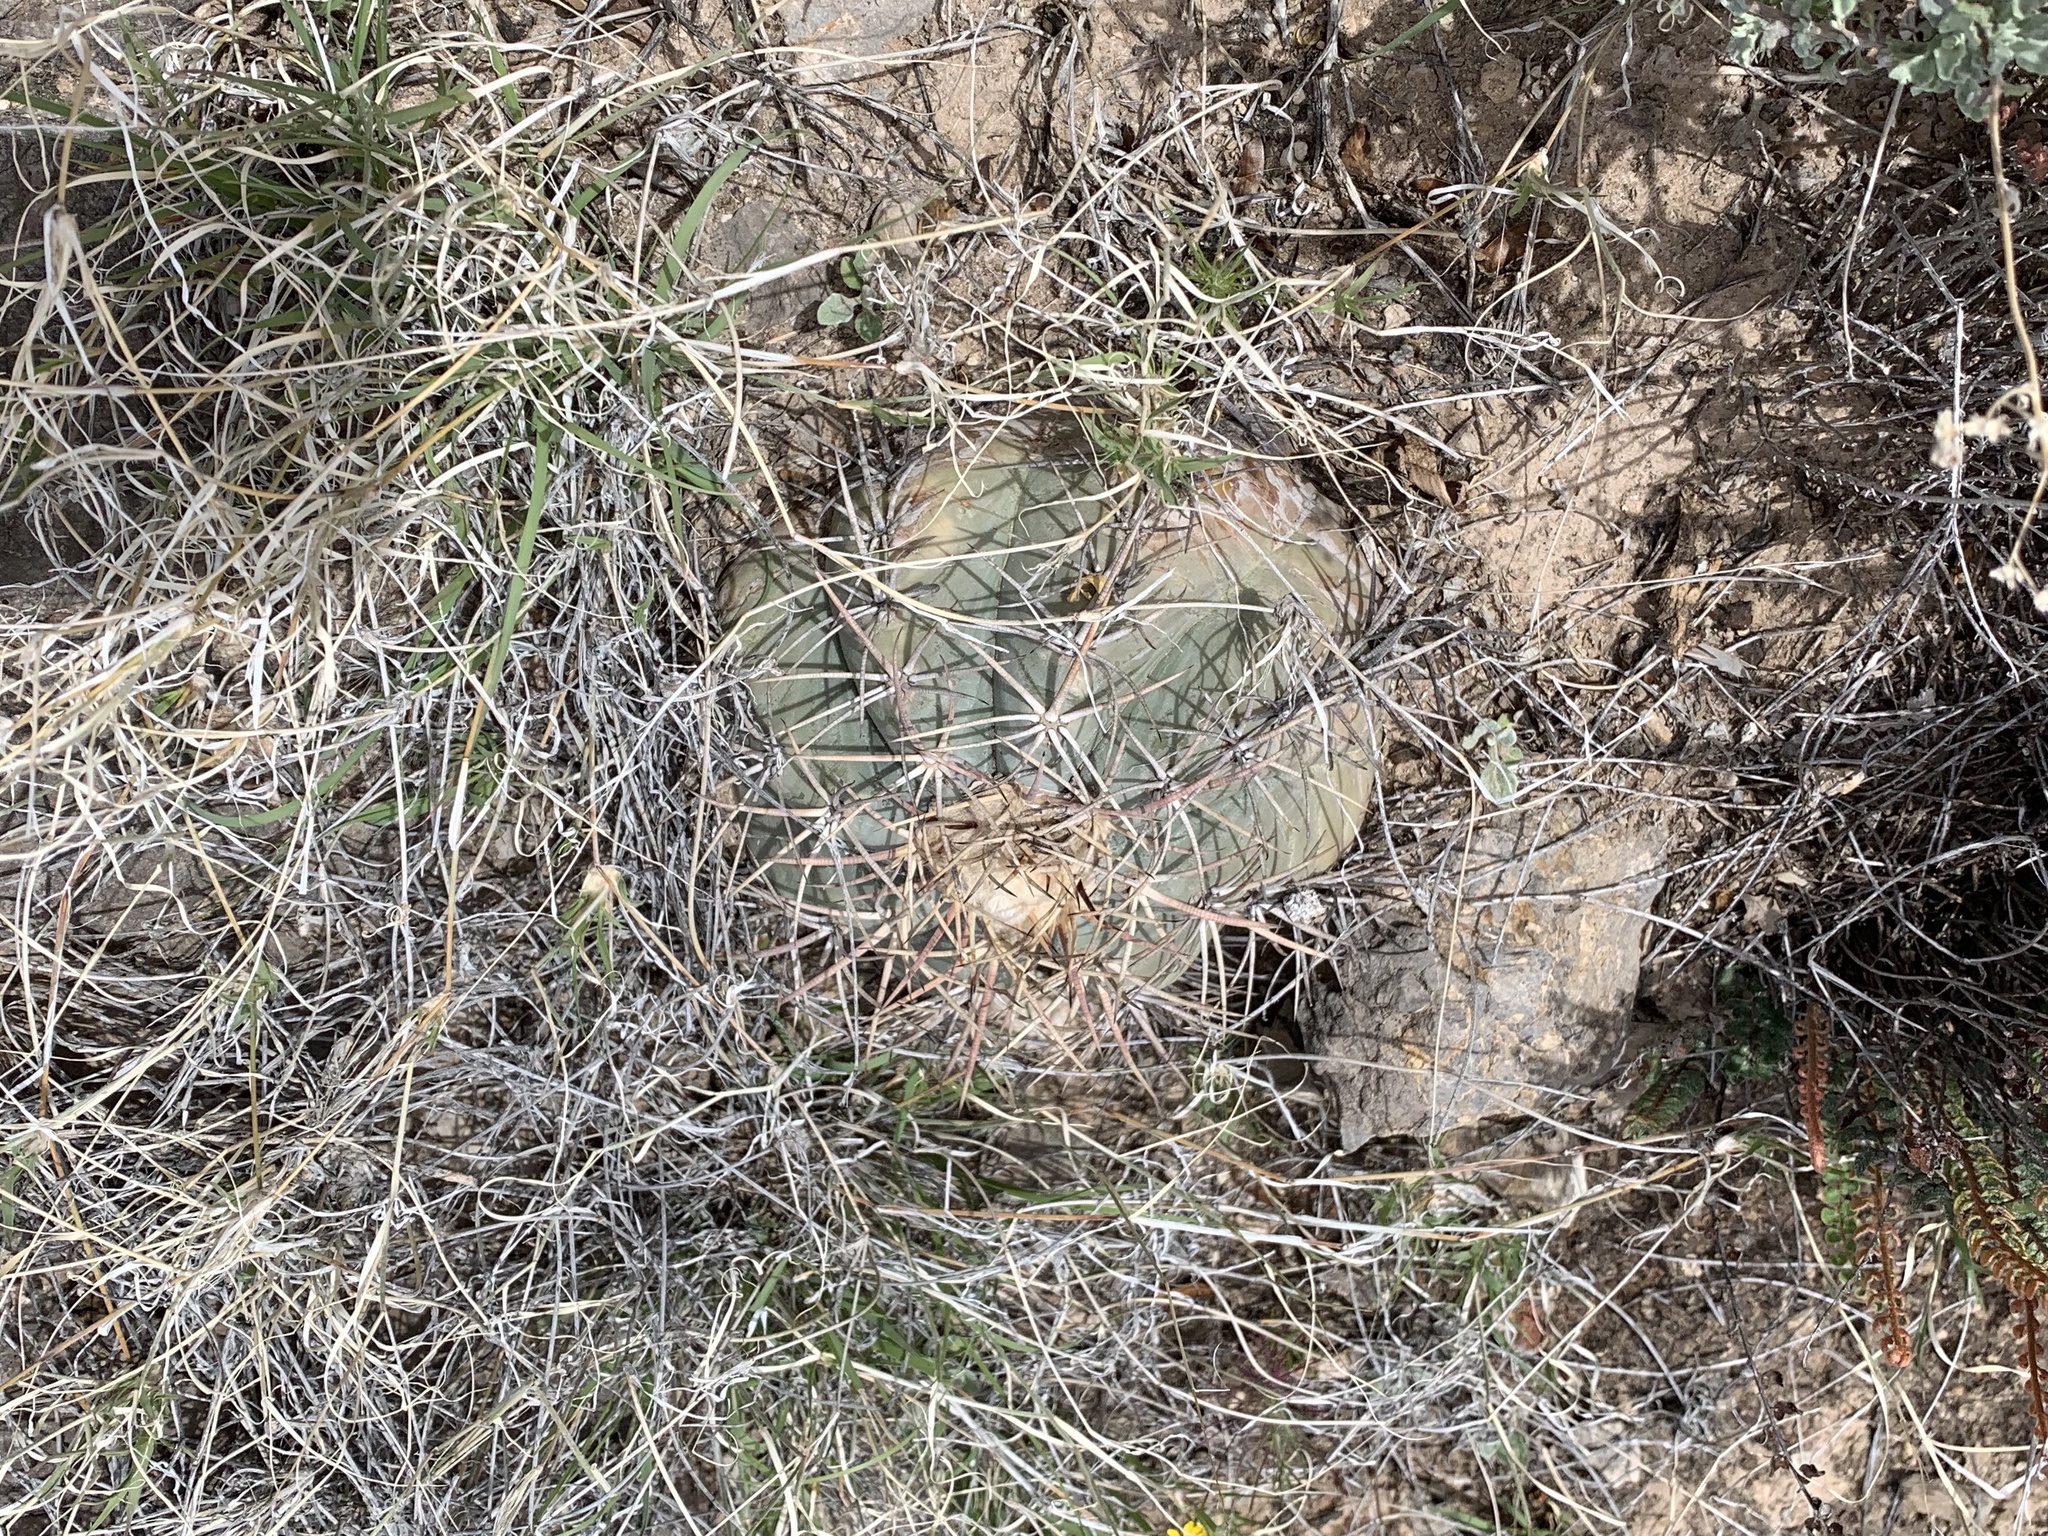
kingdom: Plantae
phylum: Tracheophyta
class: Magnoliopsida
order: Caryophyllales
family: Cactaceae
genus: Echinocactus
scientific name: Echinocactus horizonthalonius
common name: Devilshead
